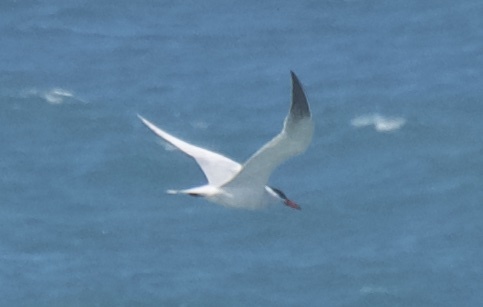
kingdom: Animalia
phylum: Chordata
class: Aves
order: Charadriiformes
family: Laridae
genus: Hydroprogne
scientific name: Hydroprogne caspia
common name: Caspian tern
